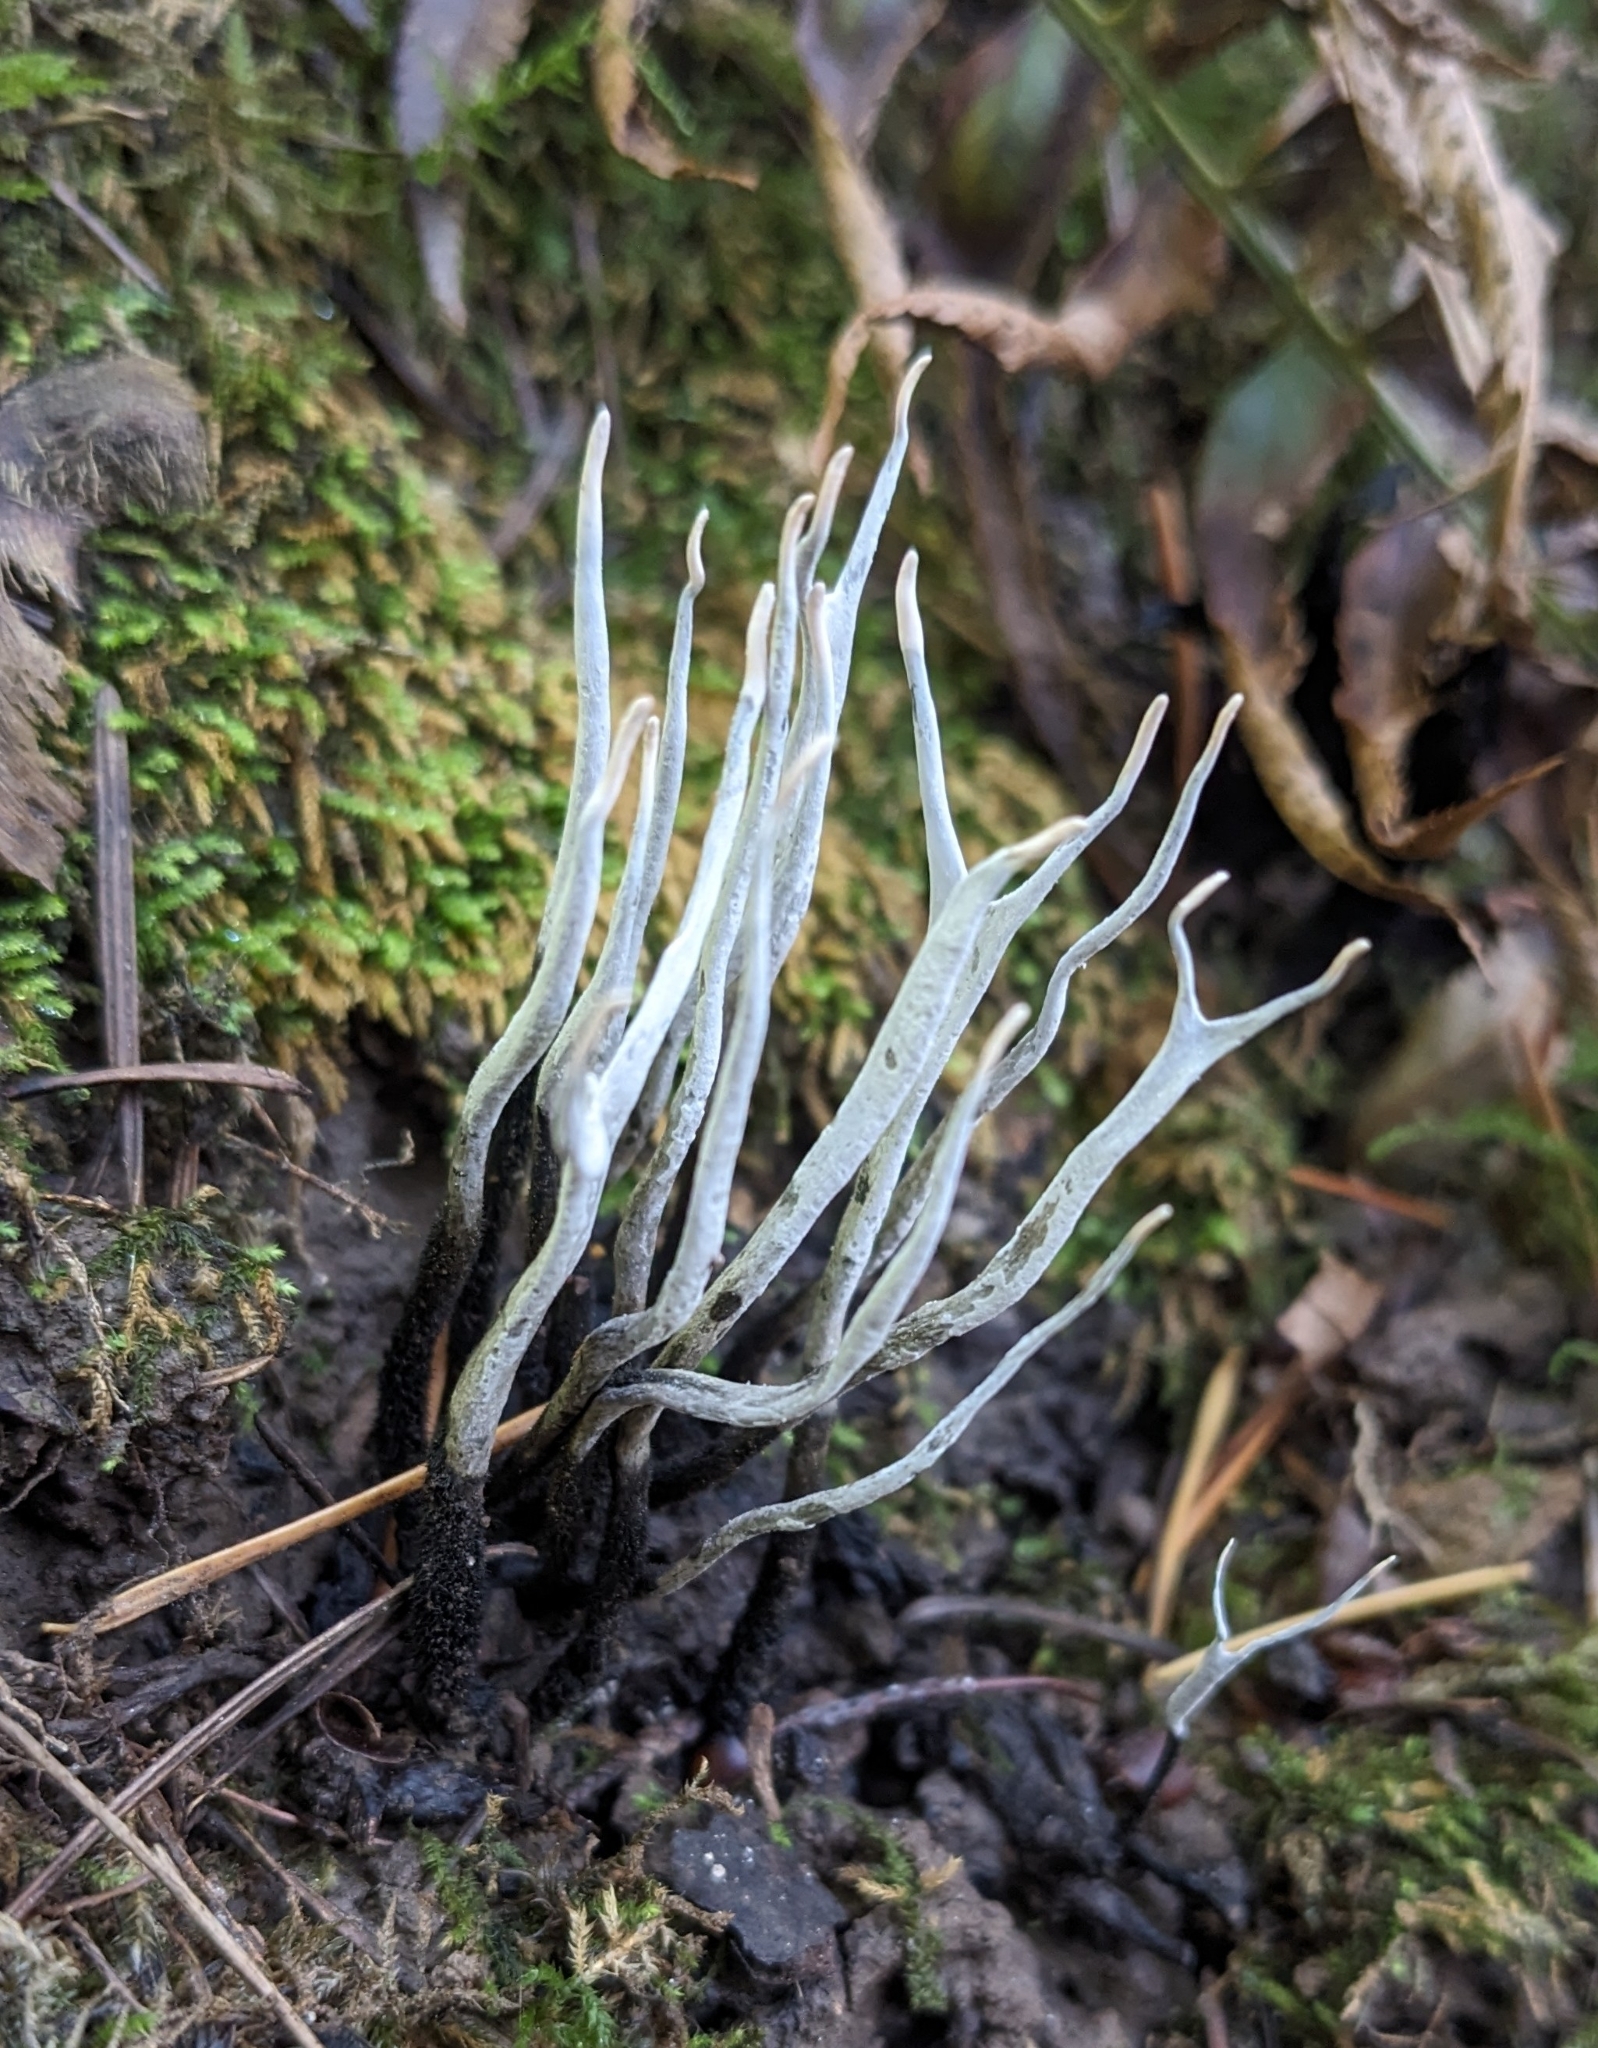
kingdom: Fungi
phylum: Ascomycota
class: Sordariomycetes
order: Xylariales
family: Xylariaceae
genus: Xylaria
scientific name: Xylaria hypoxylon
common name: Candle-snuff fungus
